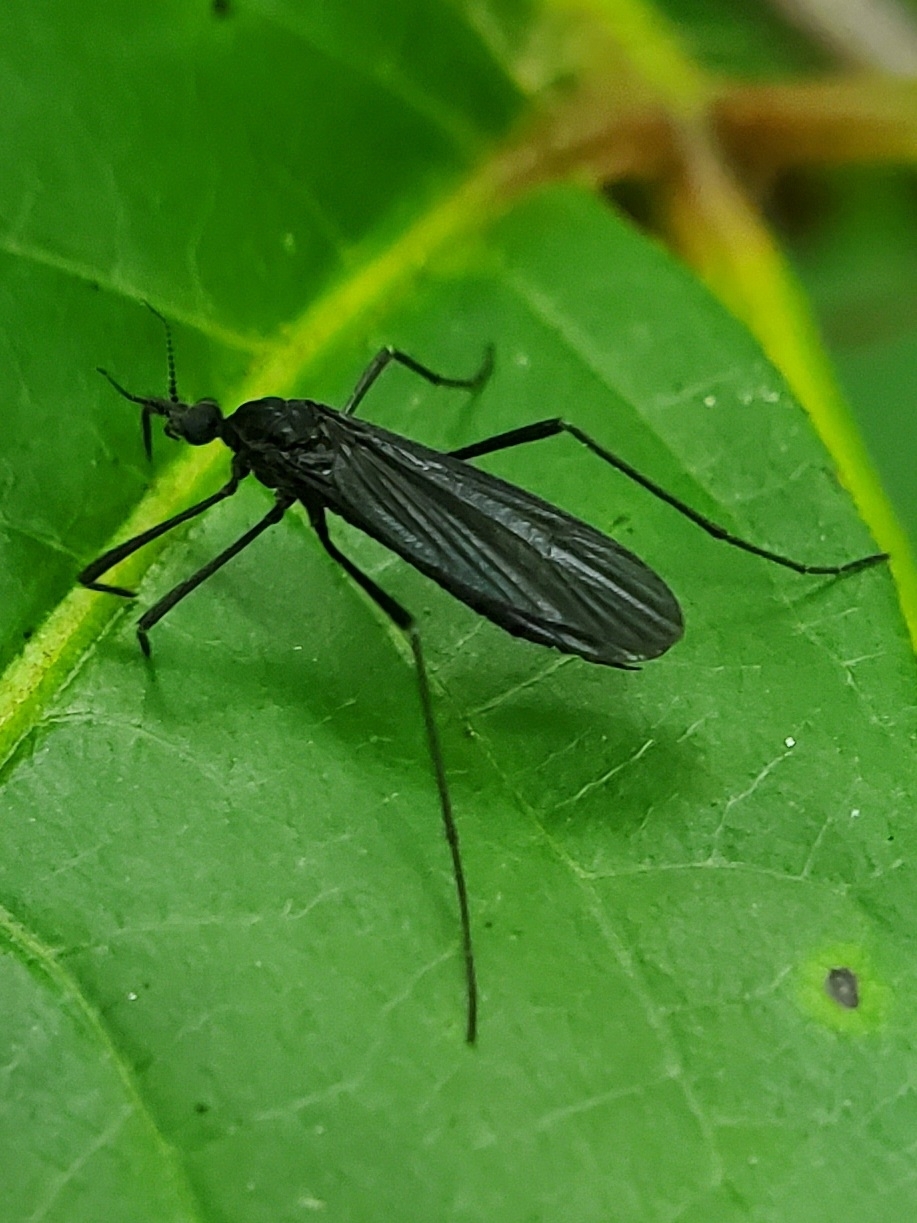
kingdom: Animalia
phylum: Arthropoda
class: Insecta
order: Diptera
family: Limoniidae
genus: Eugnophomyia
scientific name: Eugnophomyia luctuosa
